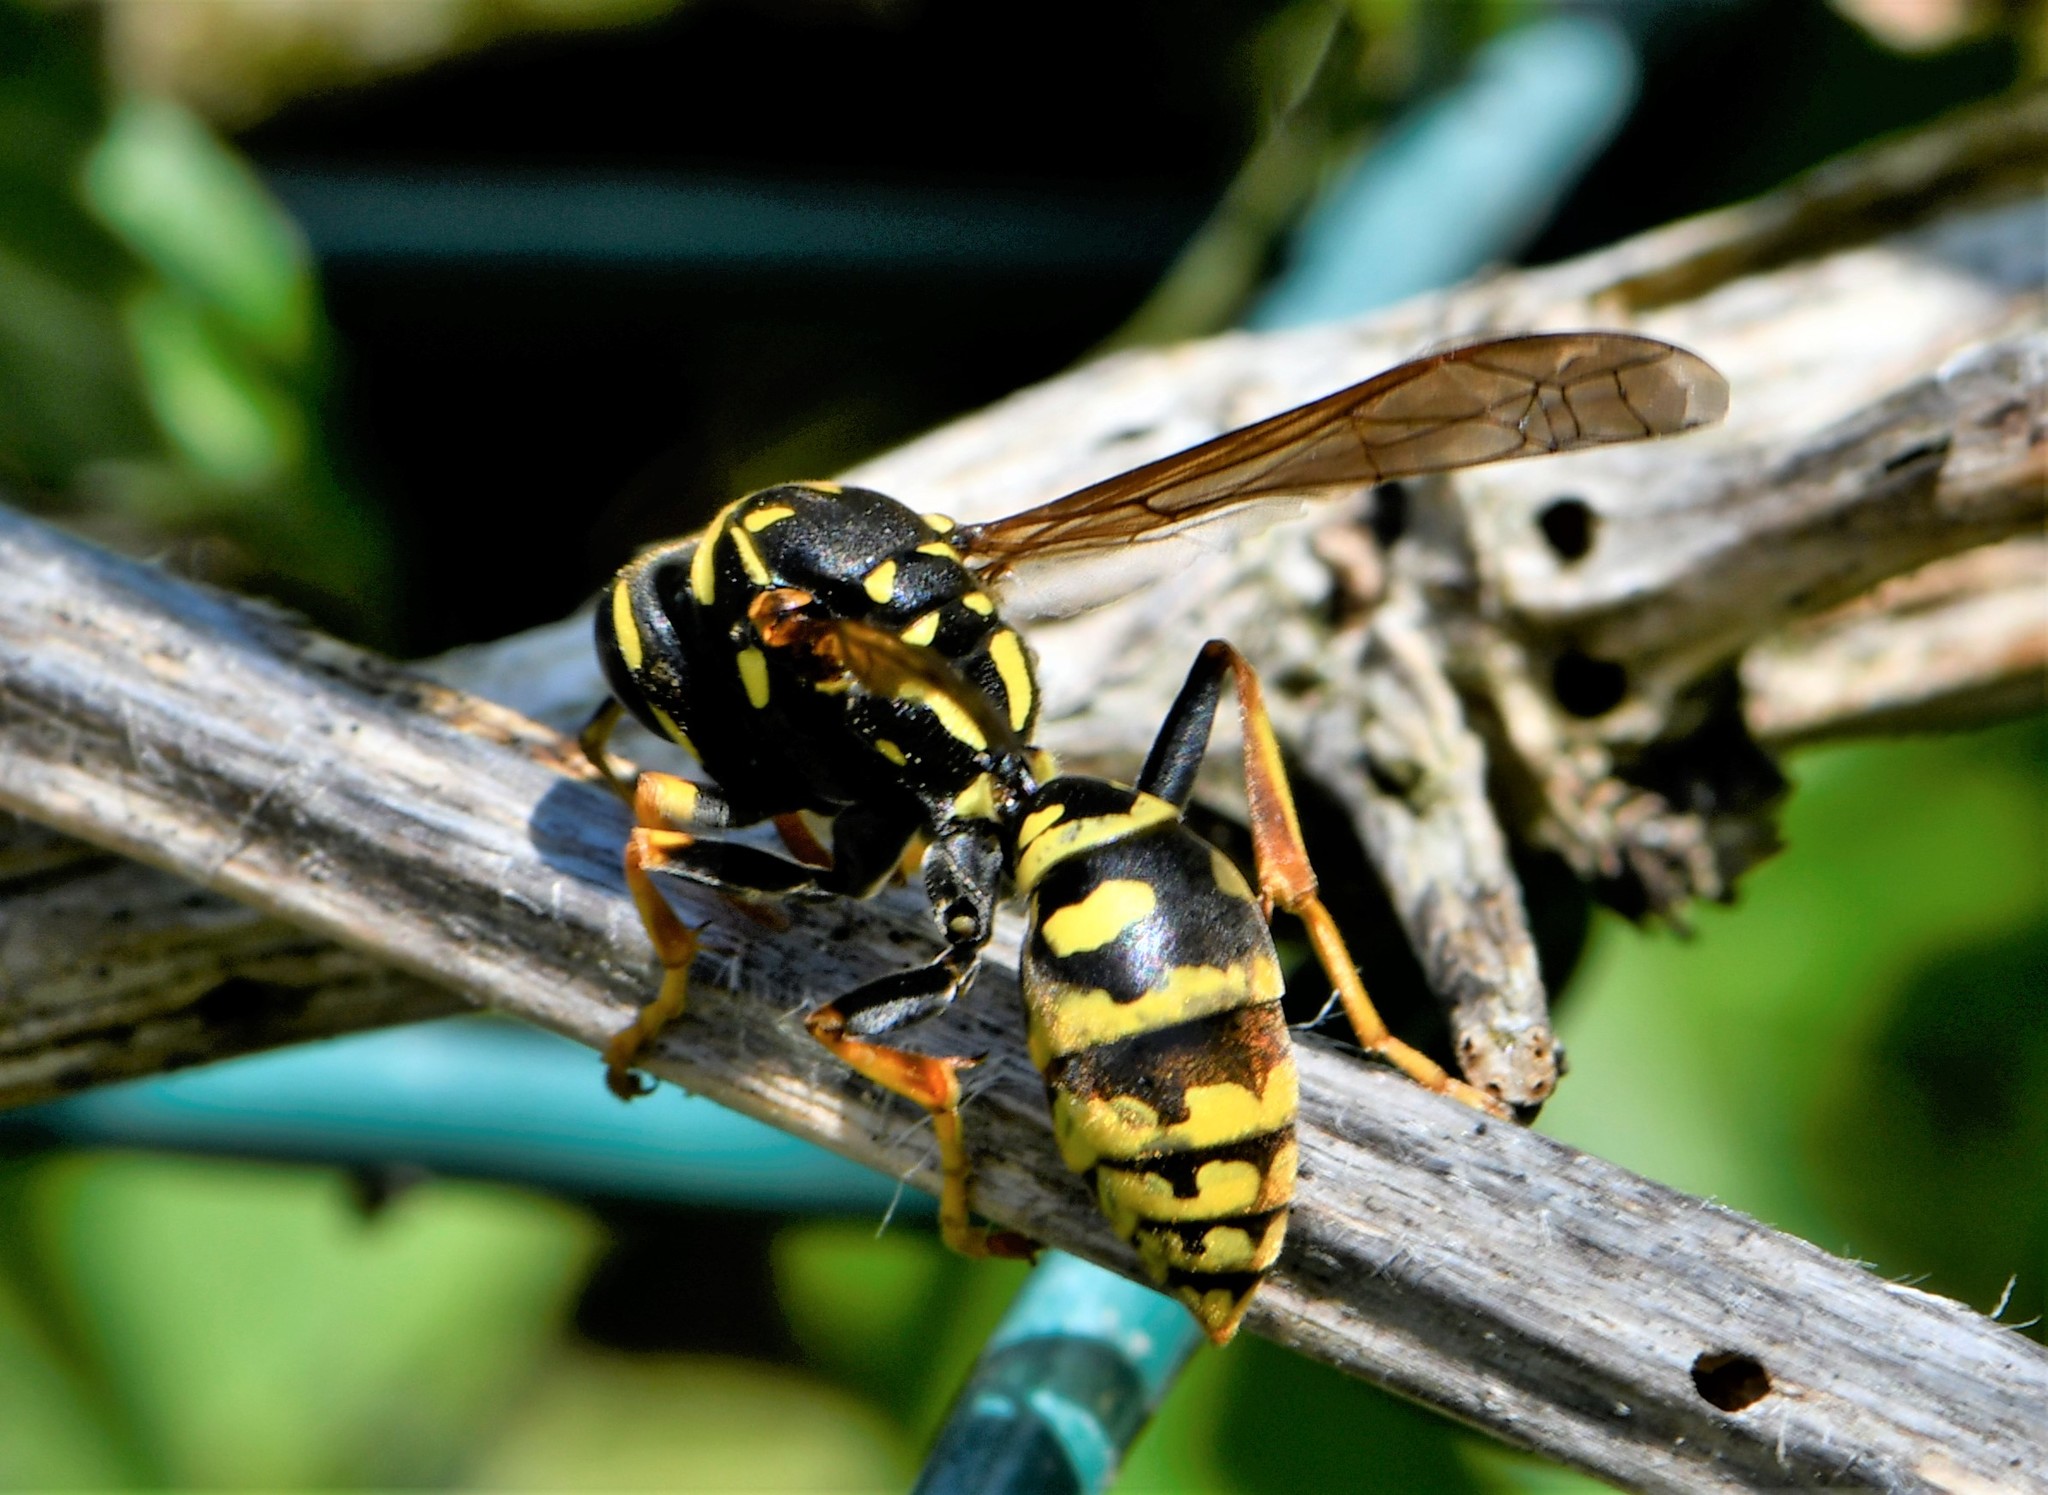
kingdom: Animalia
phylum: Arthropoda
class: Insecta
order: Hymenoptera
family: Eumenidae
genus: Polistes
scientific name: Polistes dominula
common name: Paper wasp
